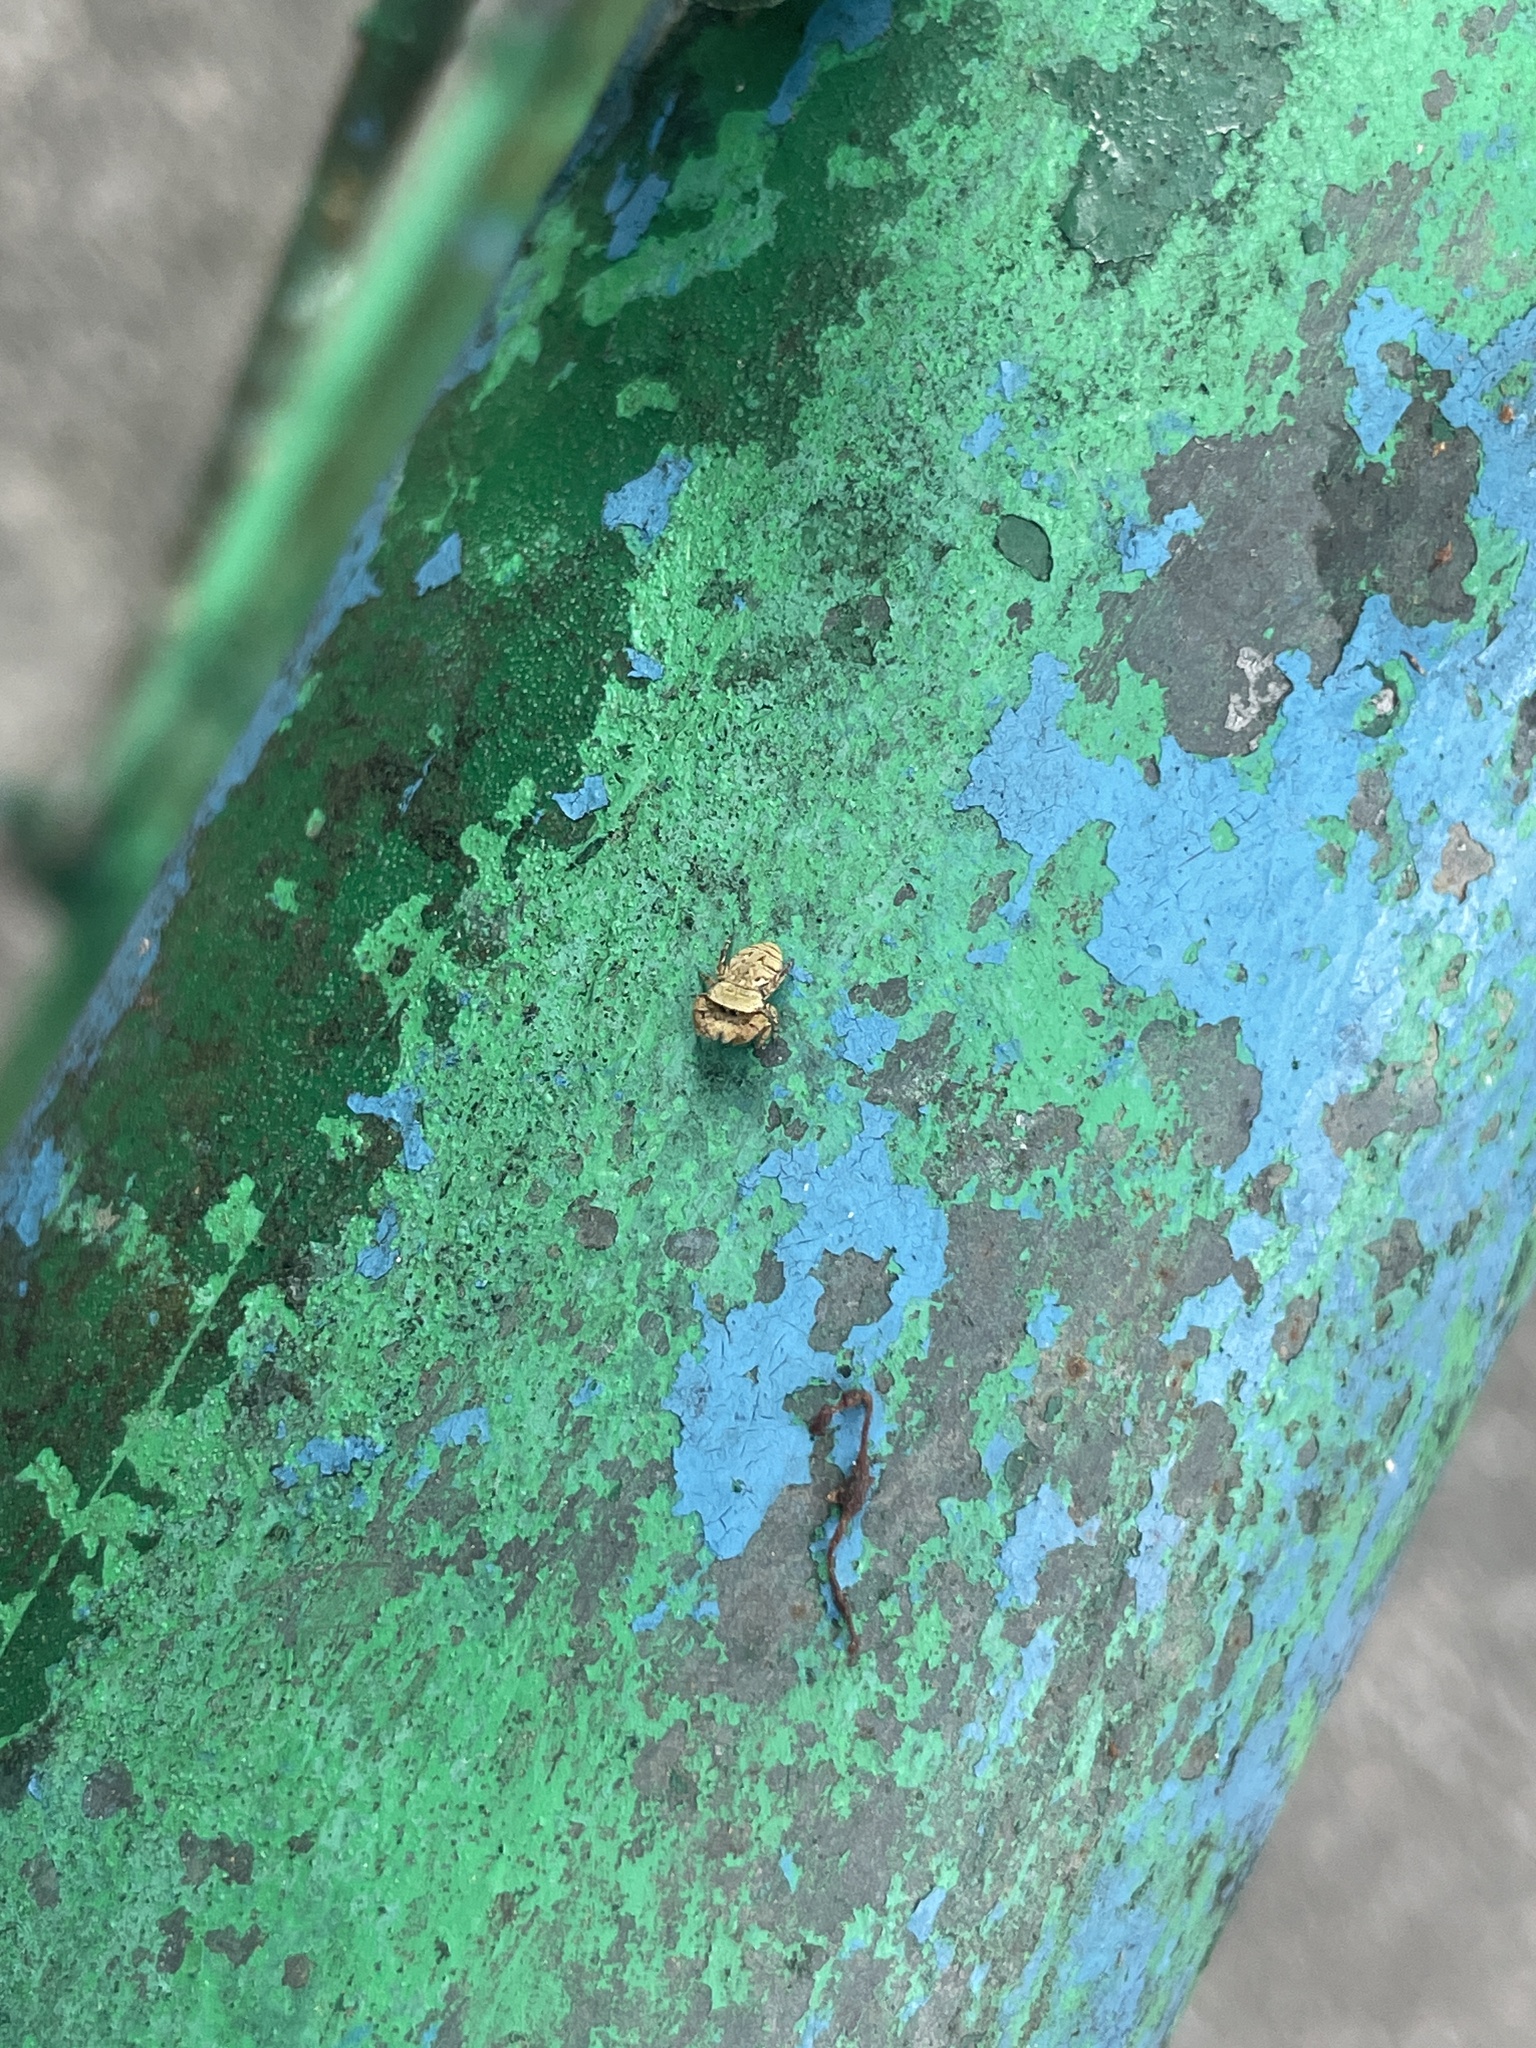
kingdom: Animalia
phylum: Arthropoda
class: Arachnida
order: Araneae
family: Salticidae
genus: Rhene
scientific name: Rhene flavicomans
